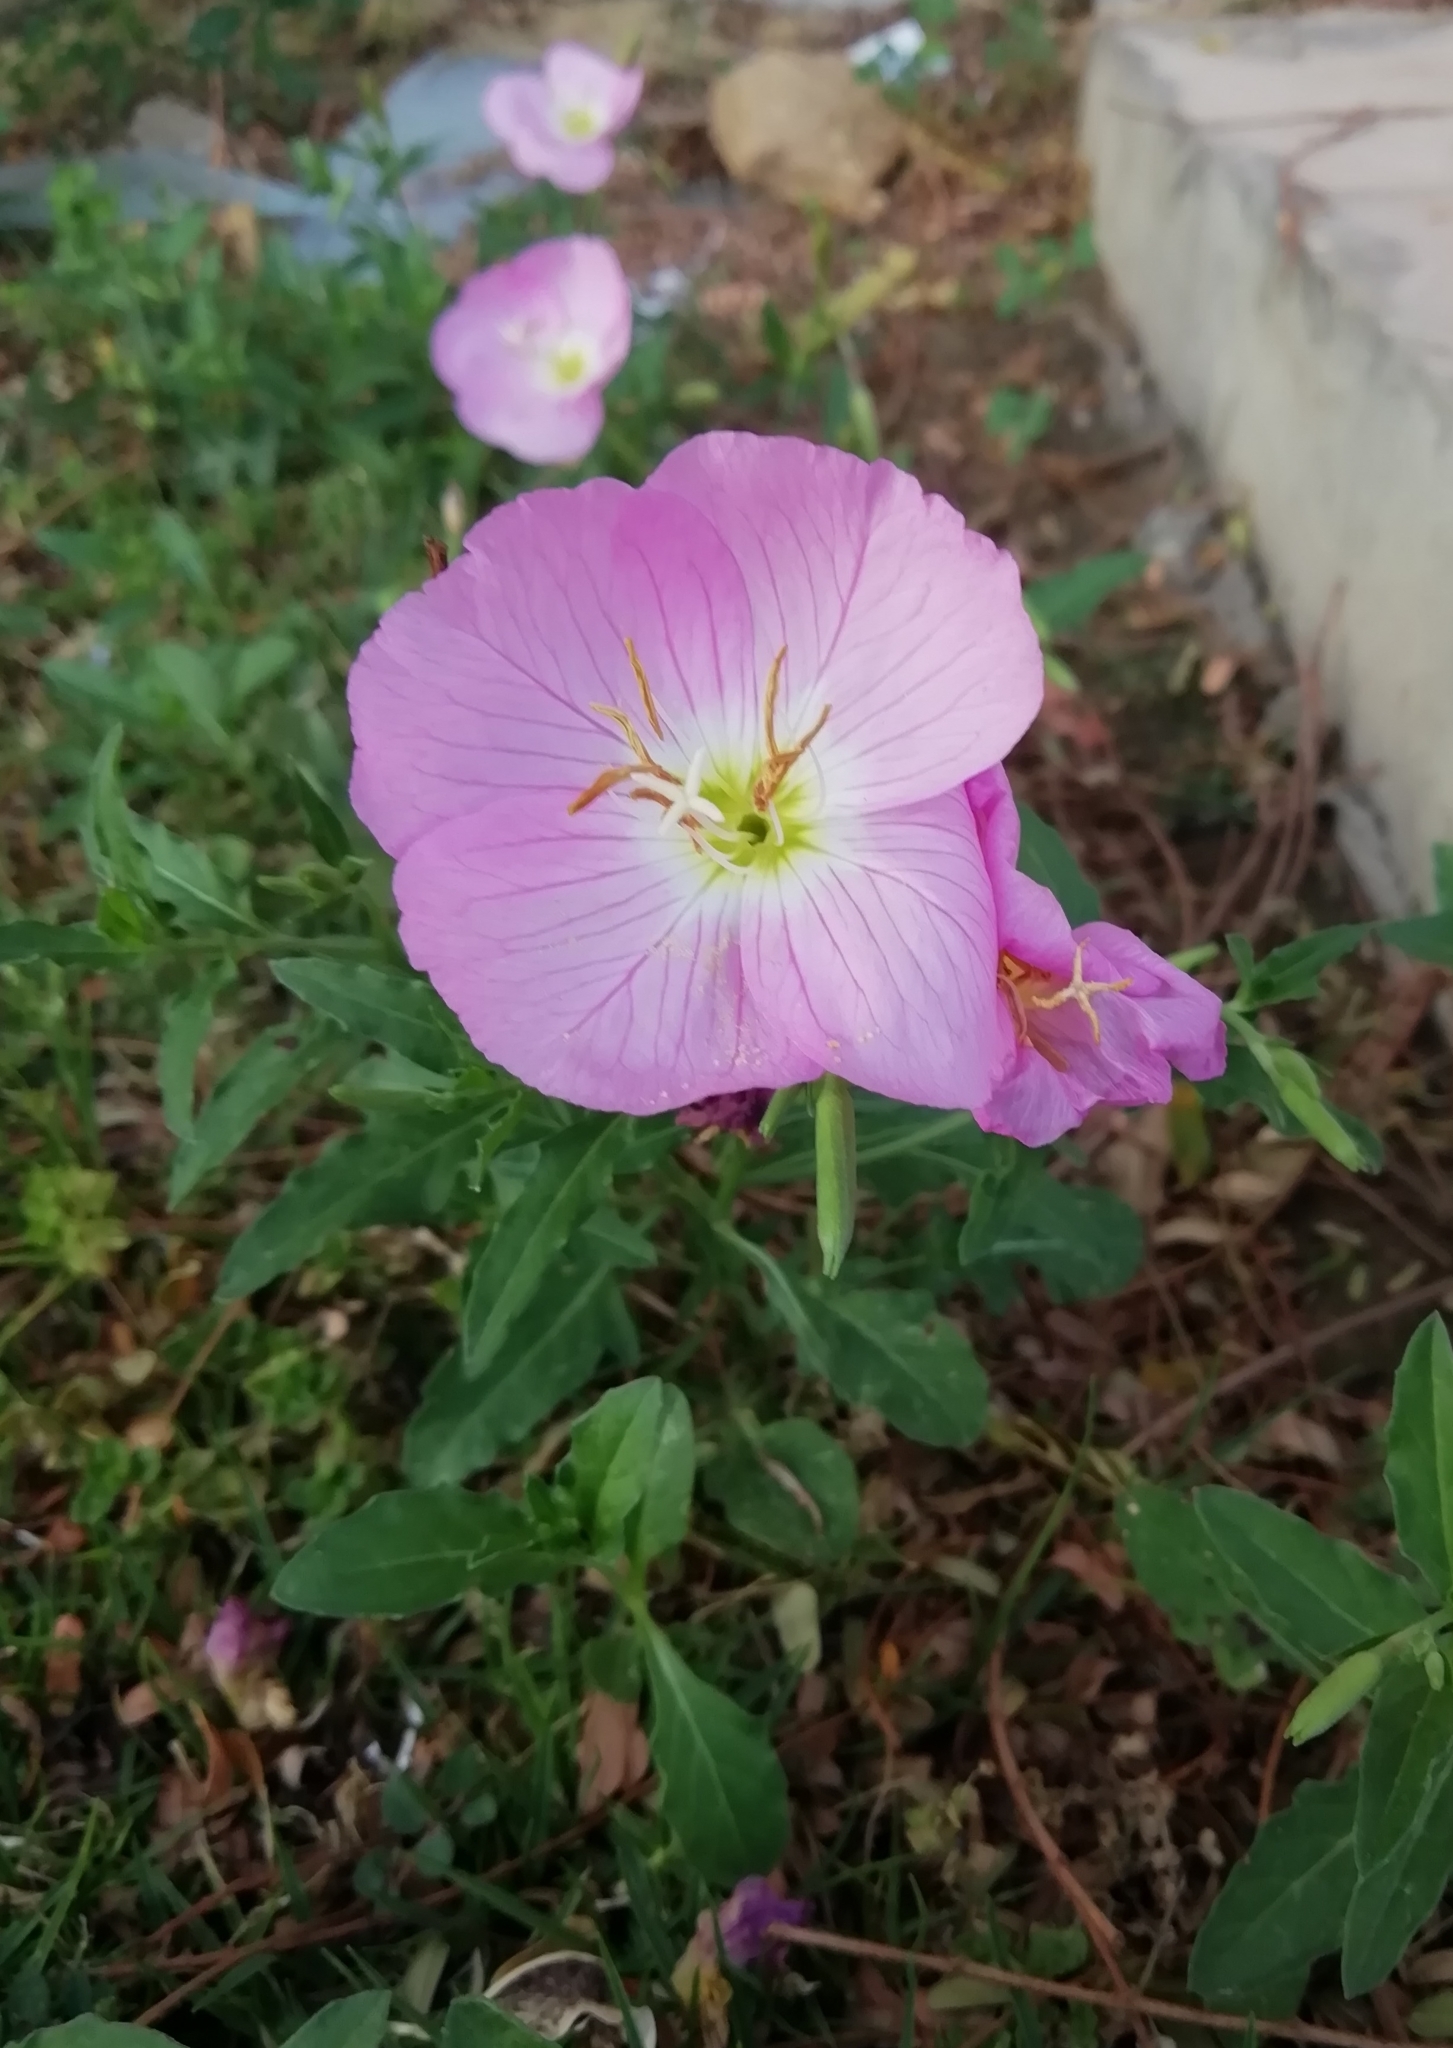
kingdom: Plantae
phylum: Tracheophyta
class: Magnoliopsida
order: Myrtales
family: Onagraceae
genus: Oenothera
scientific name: Oenothera speciosa
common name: White evening-primrose
